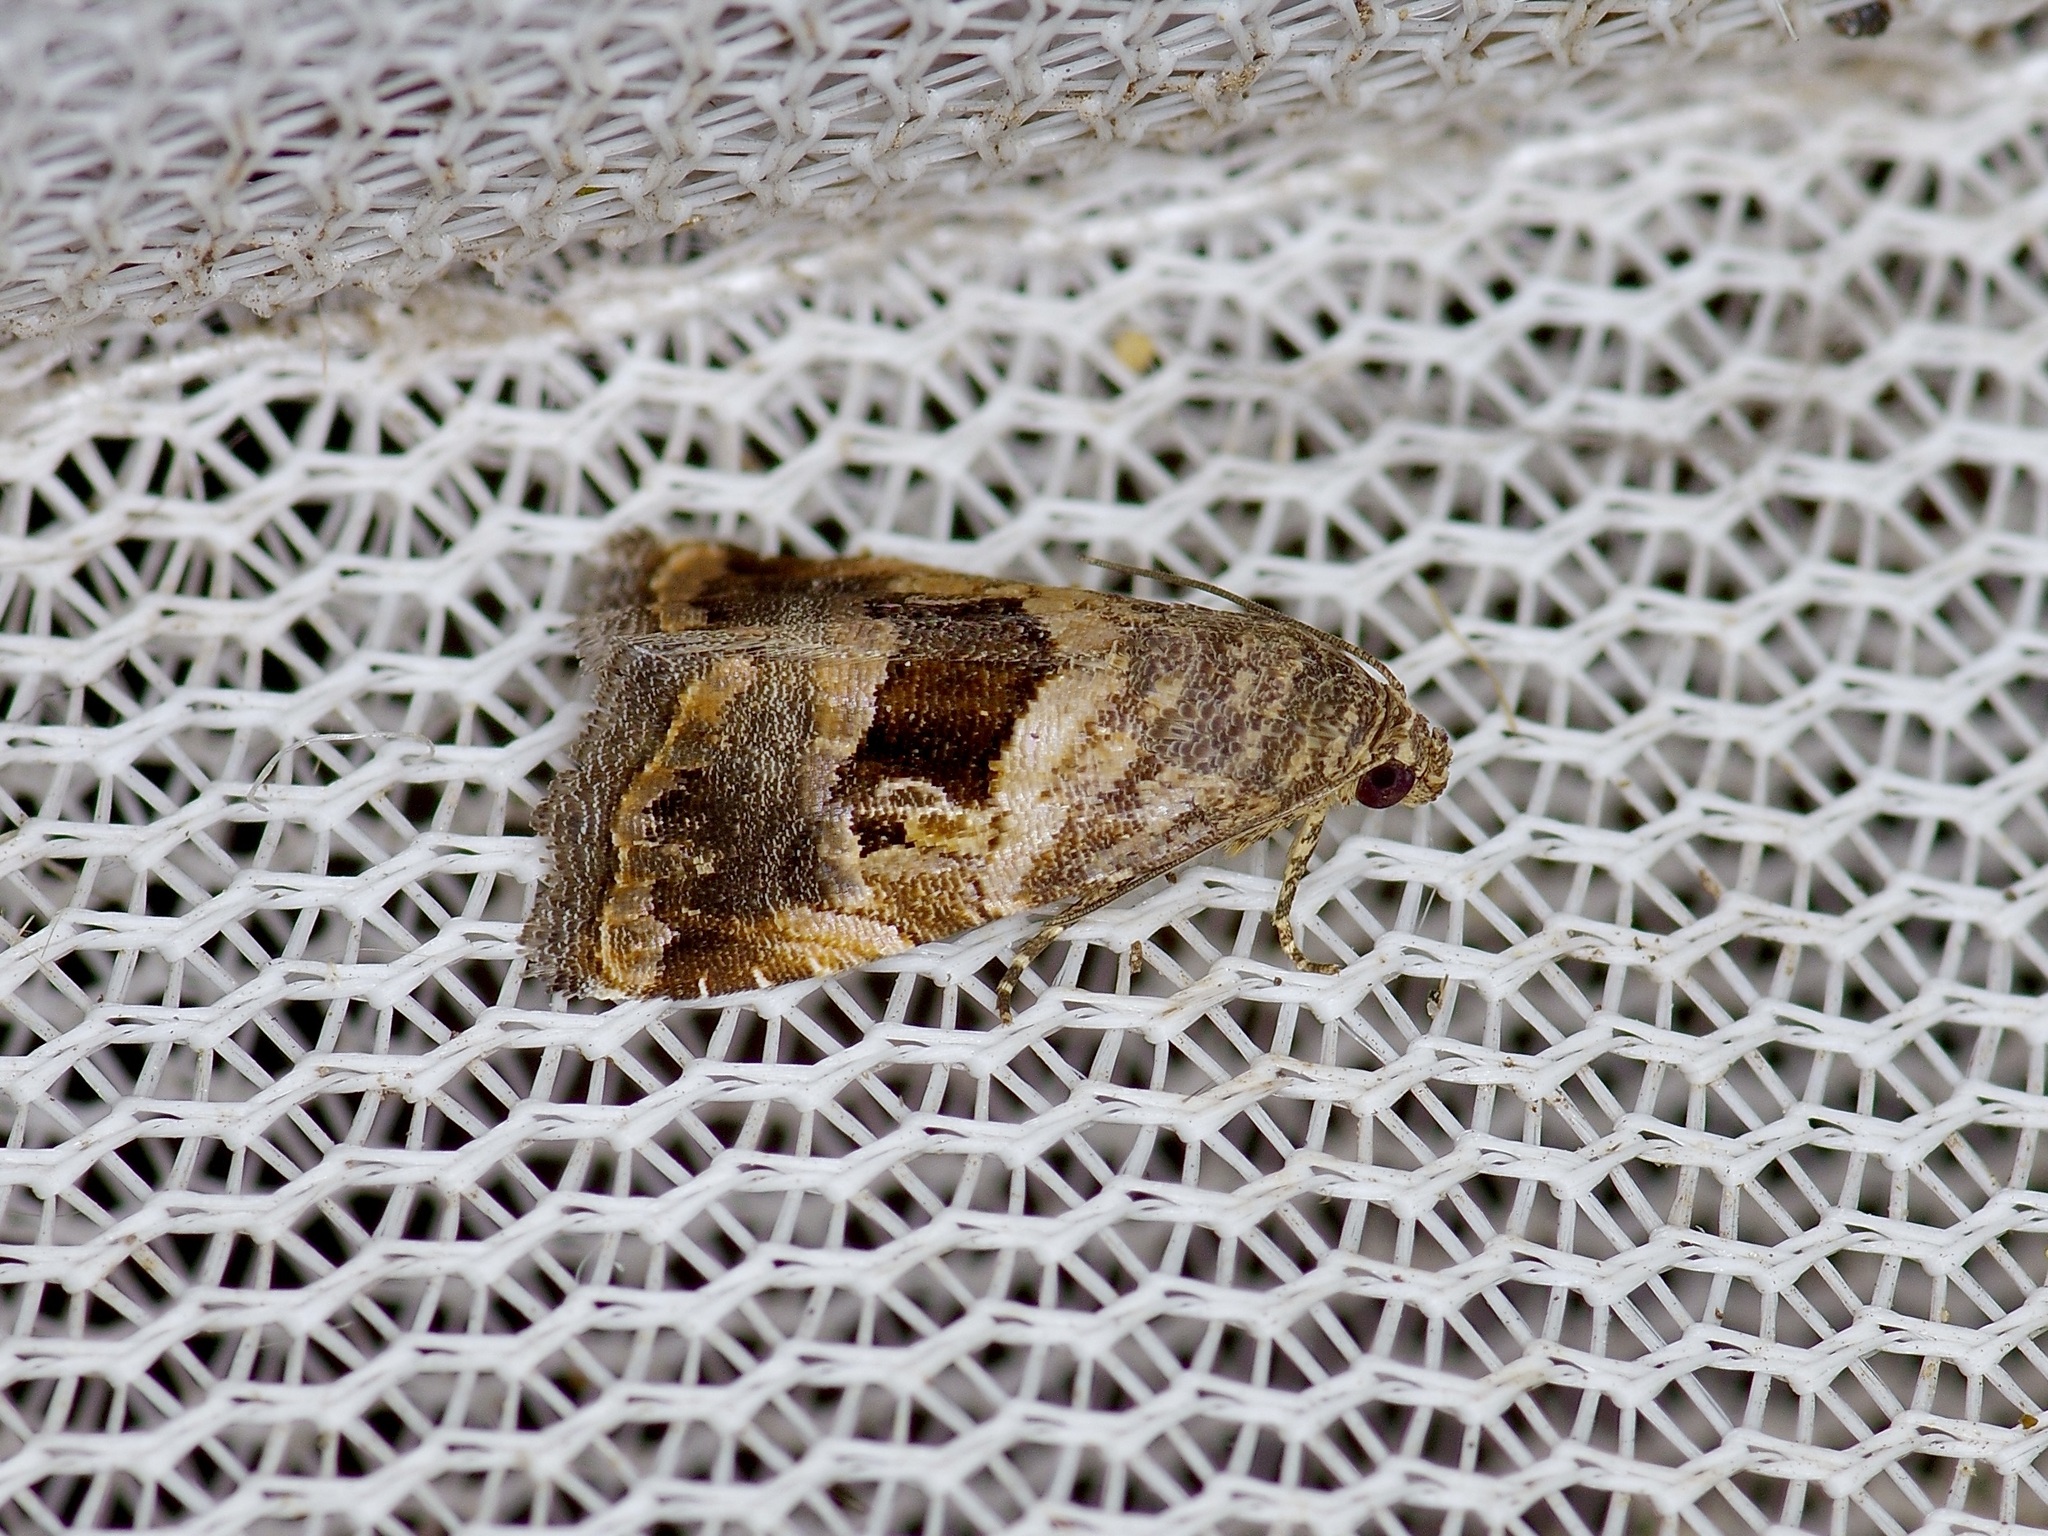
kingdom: Animalia
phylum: Arthropoda
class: Insecta
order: Lepidoptera
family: Noctuidae
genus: Tripudia
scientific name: Tripudia quadrifera
